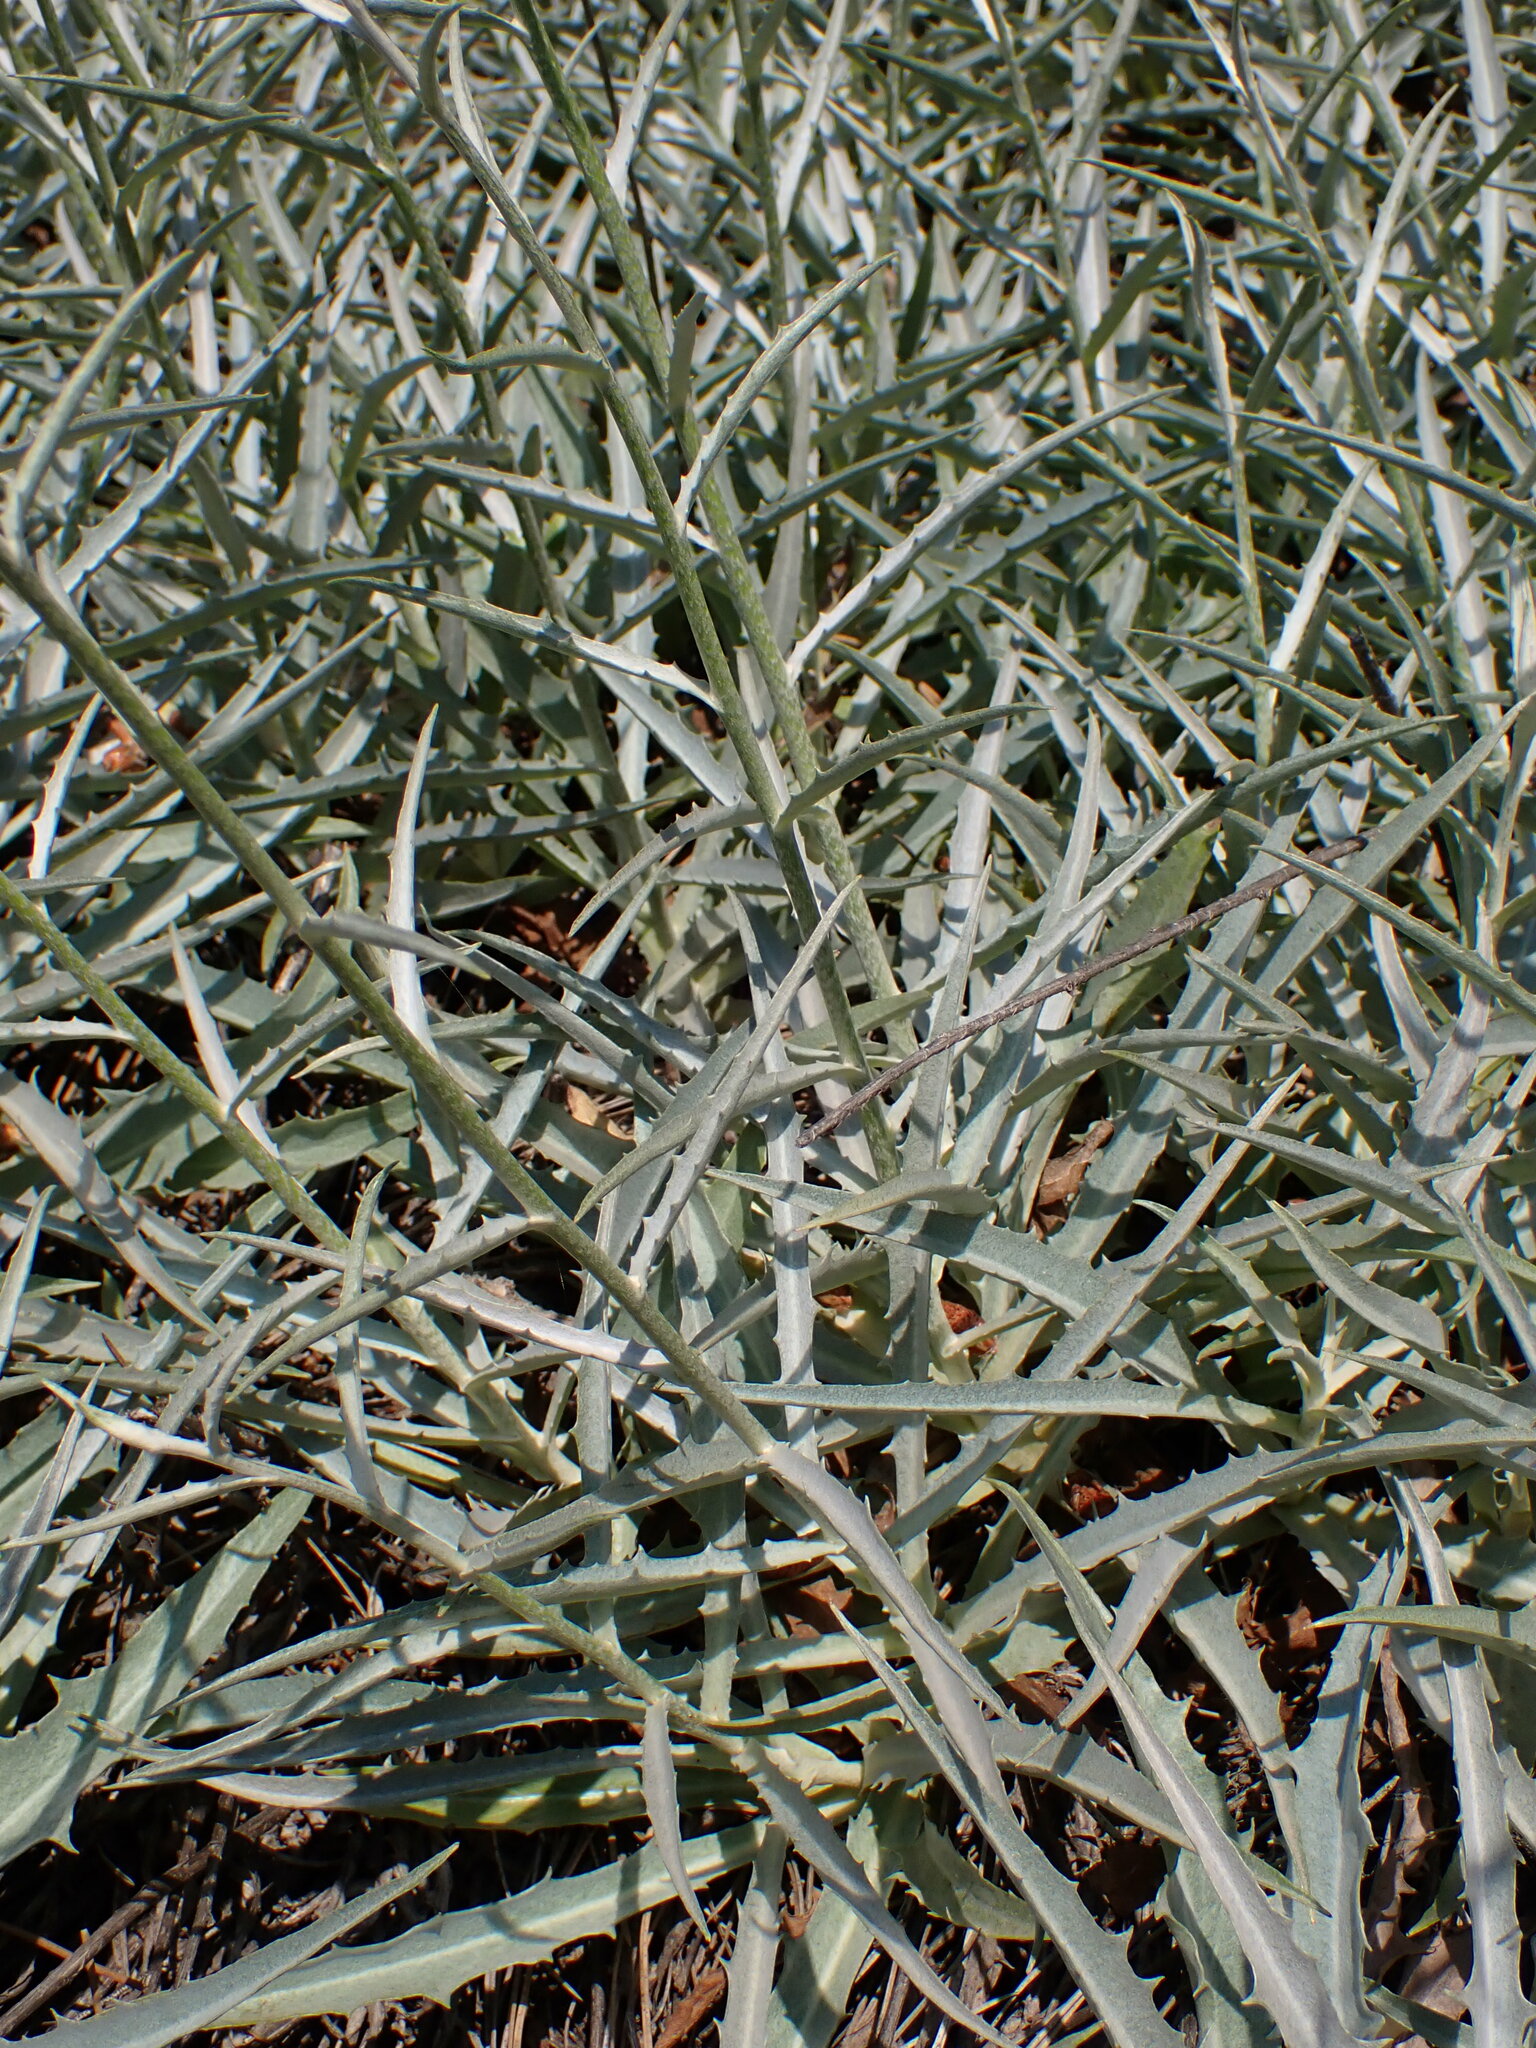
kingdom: Plantae
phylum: Tracheophyta
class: Magnoliopsida
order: Asterales
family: Asteraceae
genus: Stephanomeria
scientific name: Stephanomeria cichoriacea
